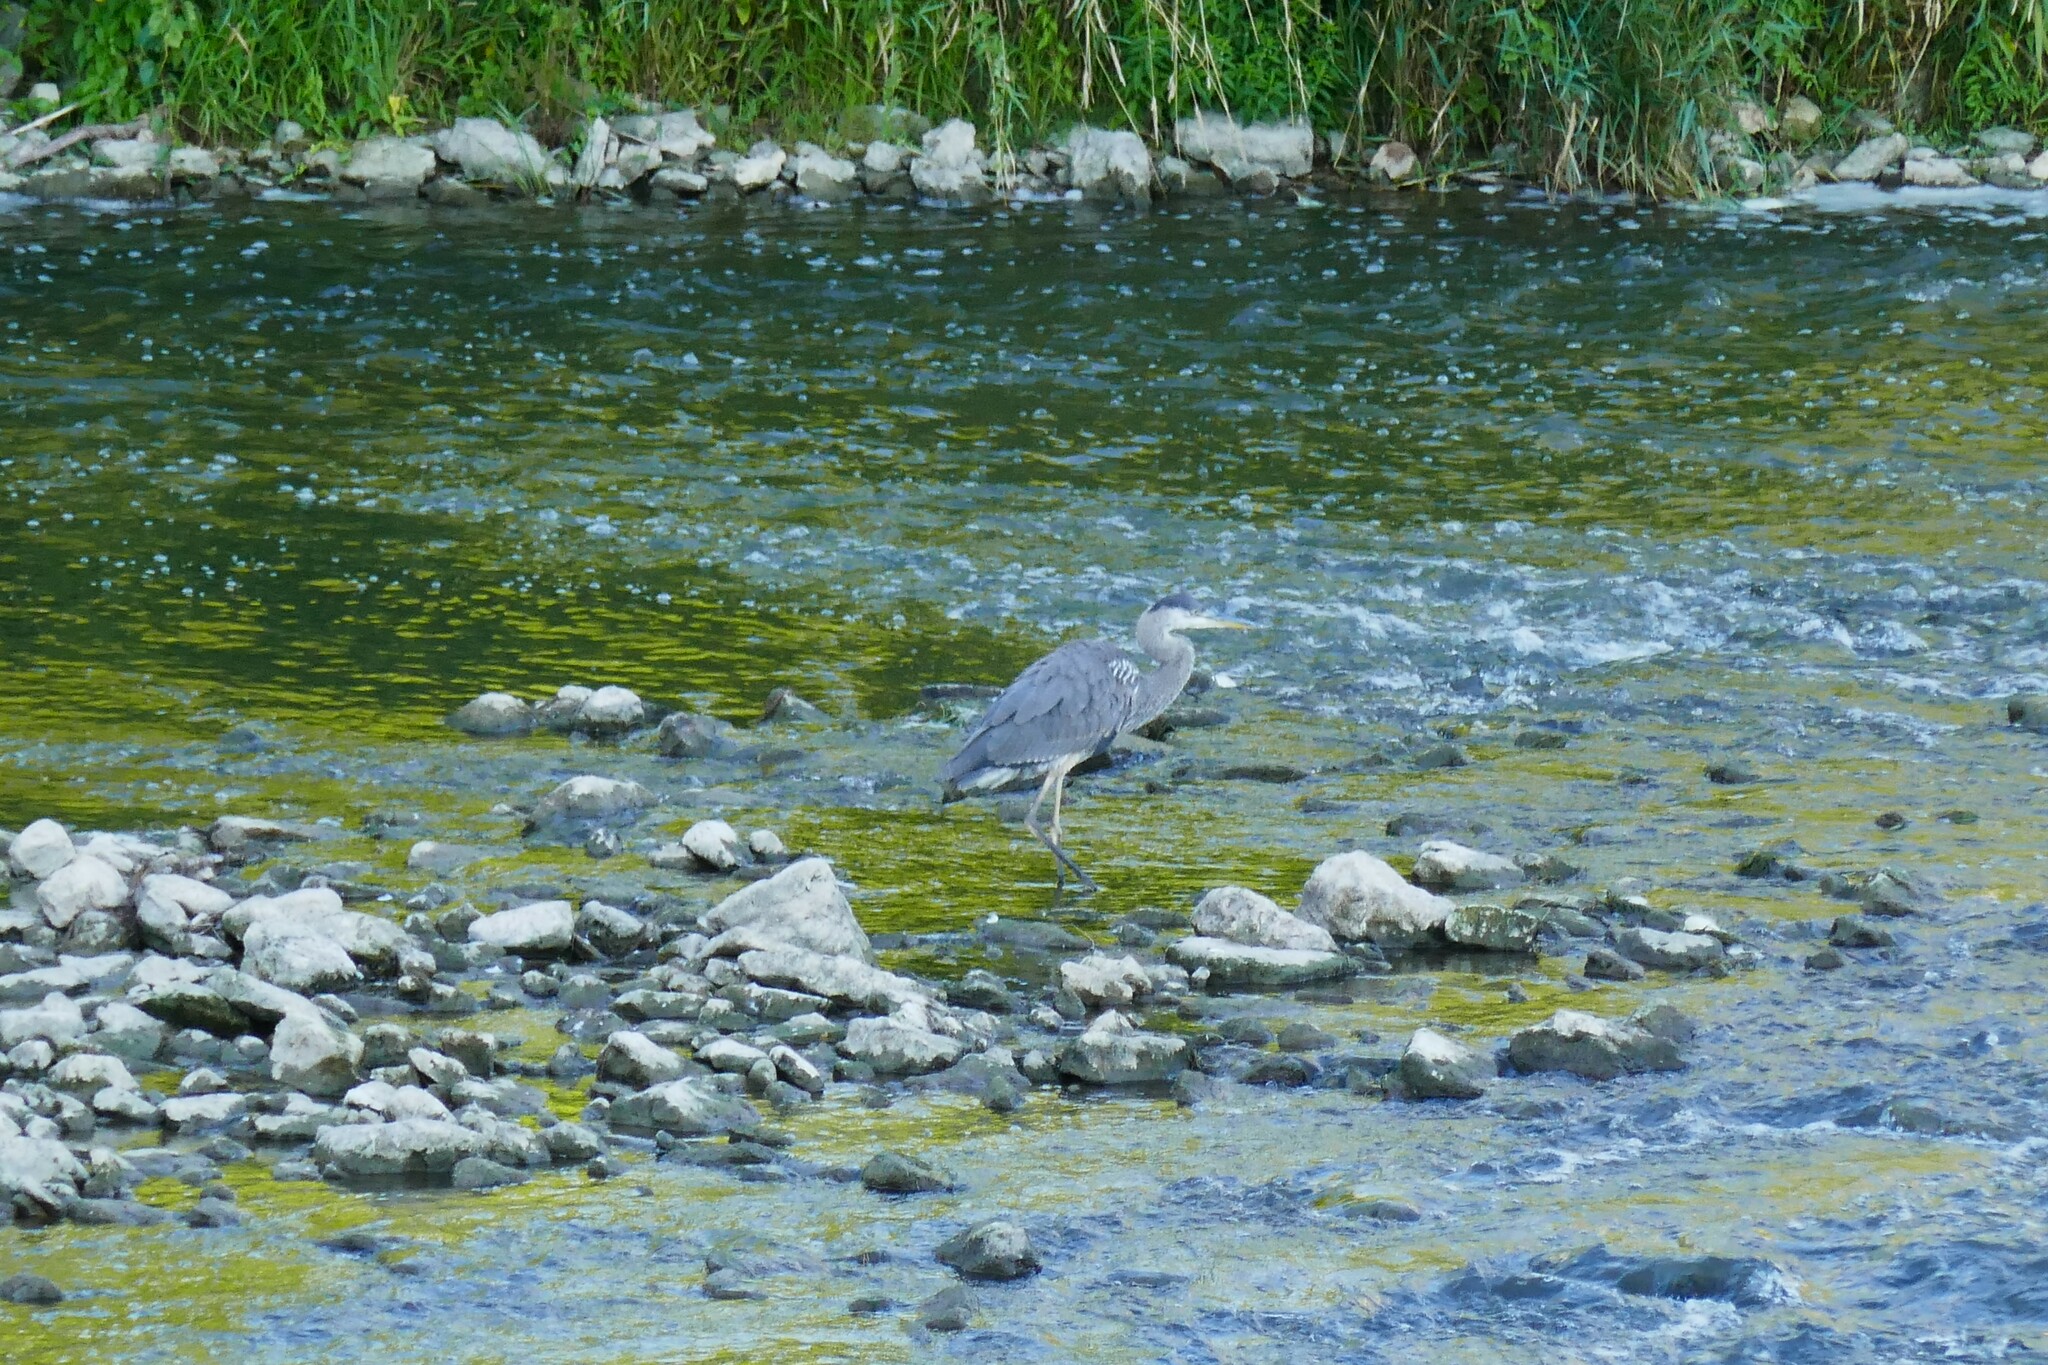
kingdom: Animalia
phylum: Chordata
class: Aves
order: Pelecaniformes
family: Ardeidae
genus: Ardea
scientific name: Ardea herodias
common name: Great blue heron
